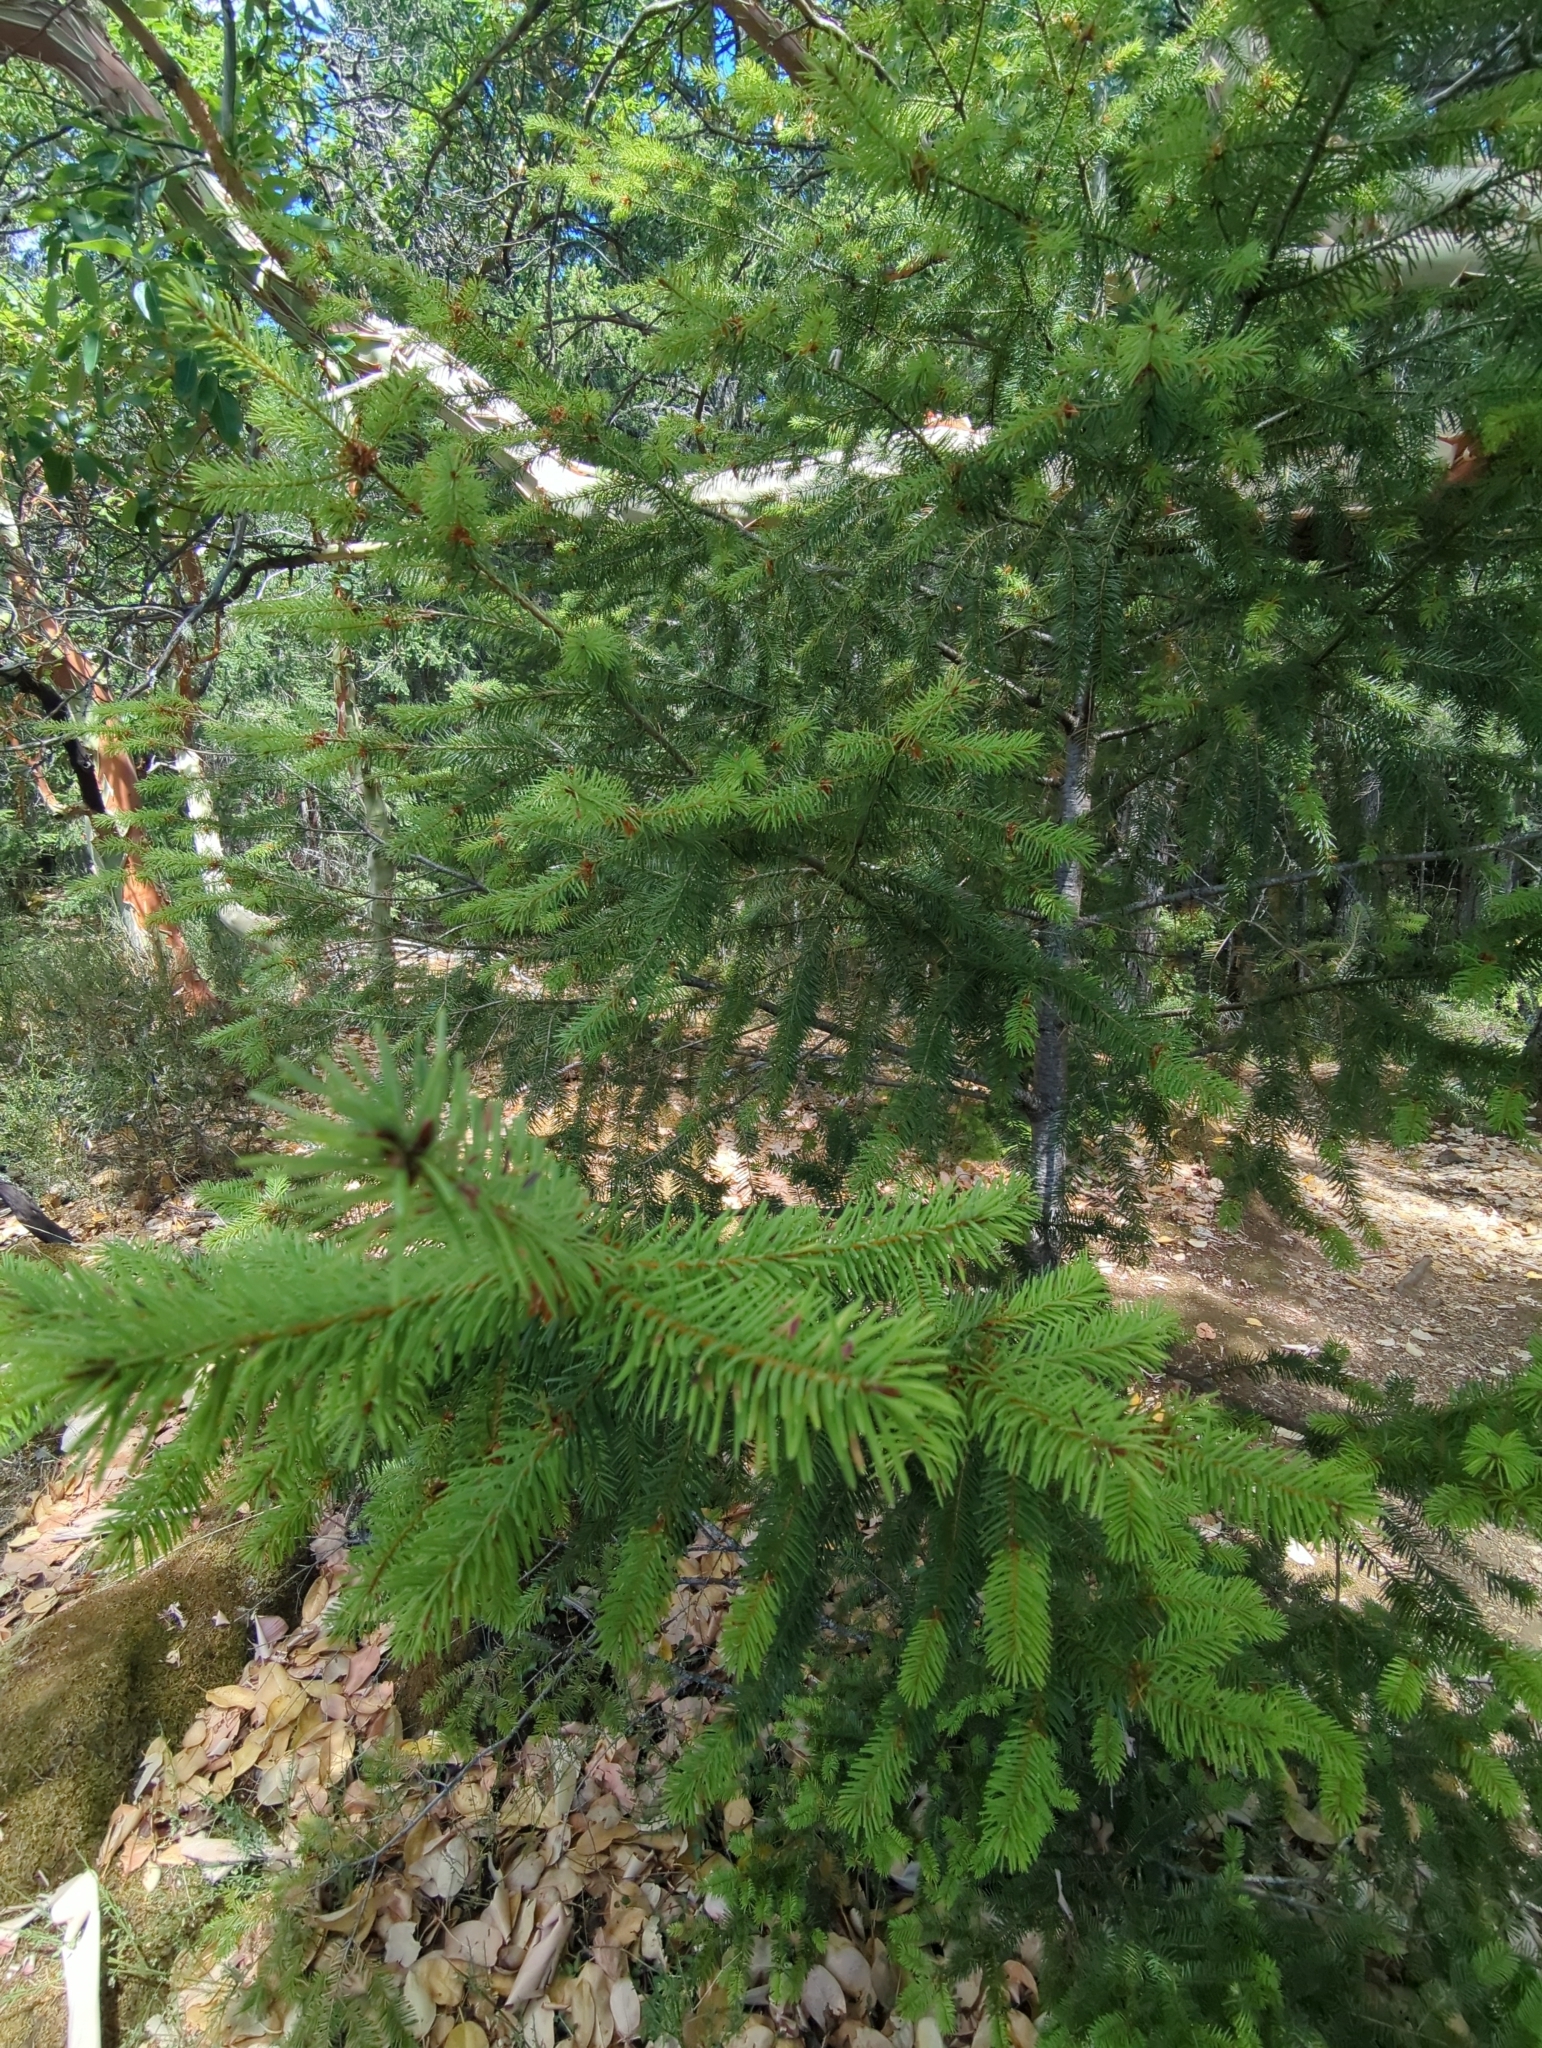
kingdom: Plantae
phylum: Tracheophyta
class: Pinopsida
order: Pinales
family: Pinaceae
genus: Pseudotsuga
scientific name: Pseudotsuga menziesii
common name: Douglas fir
